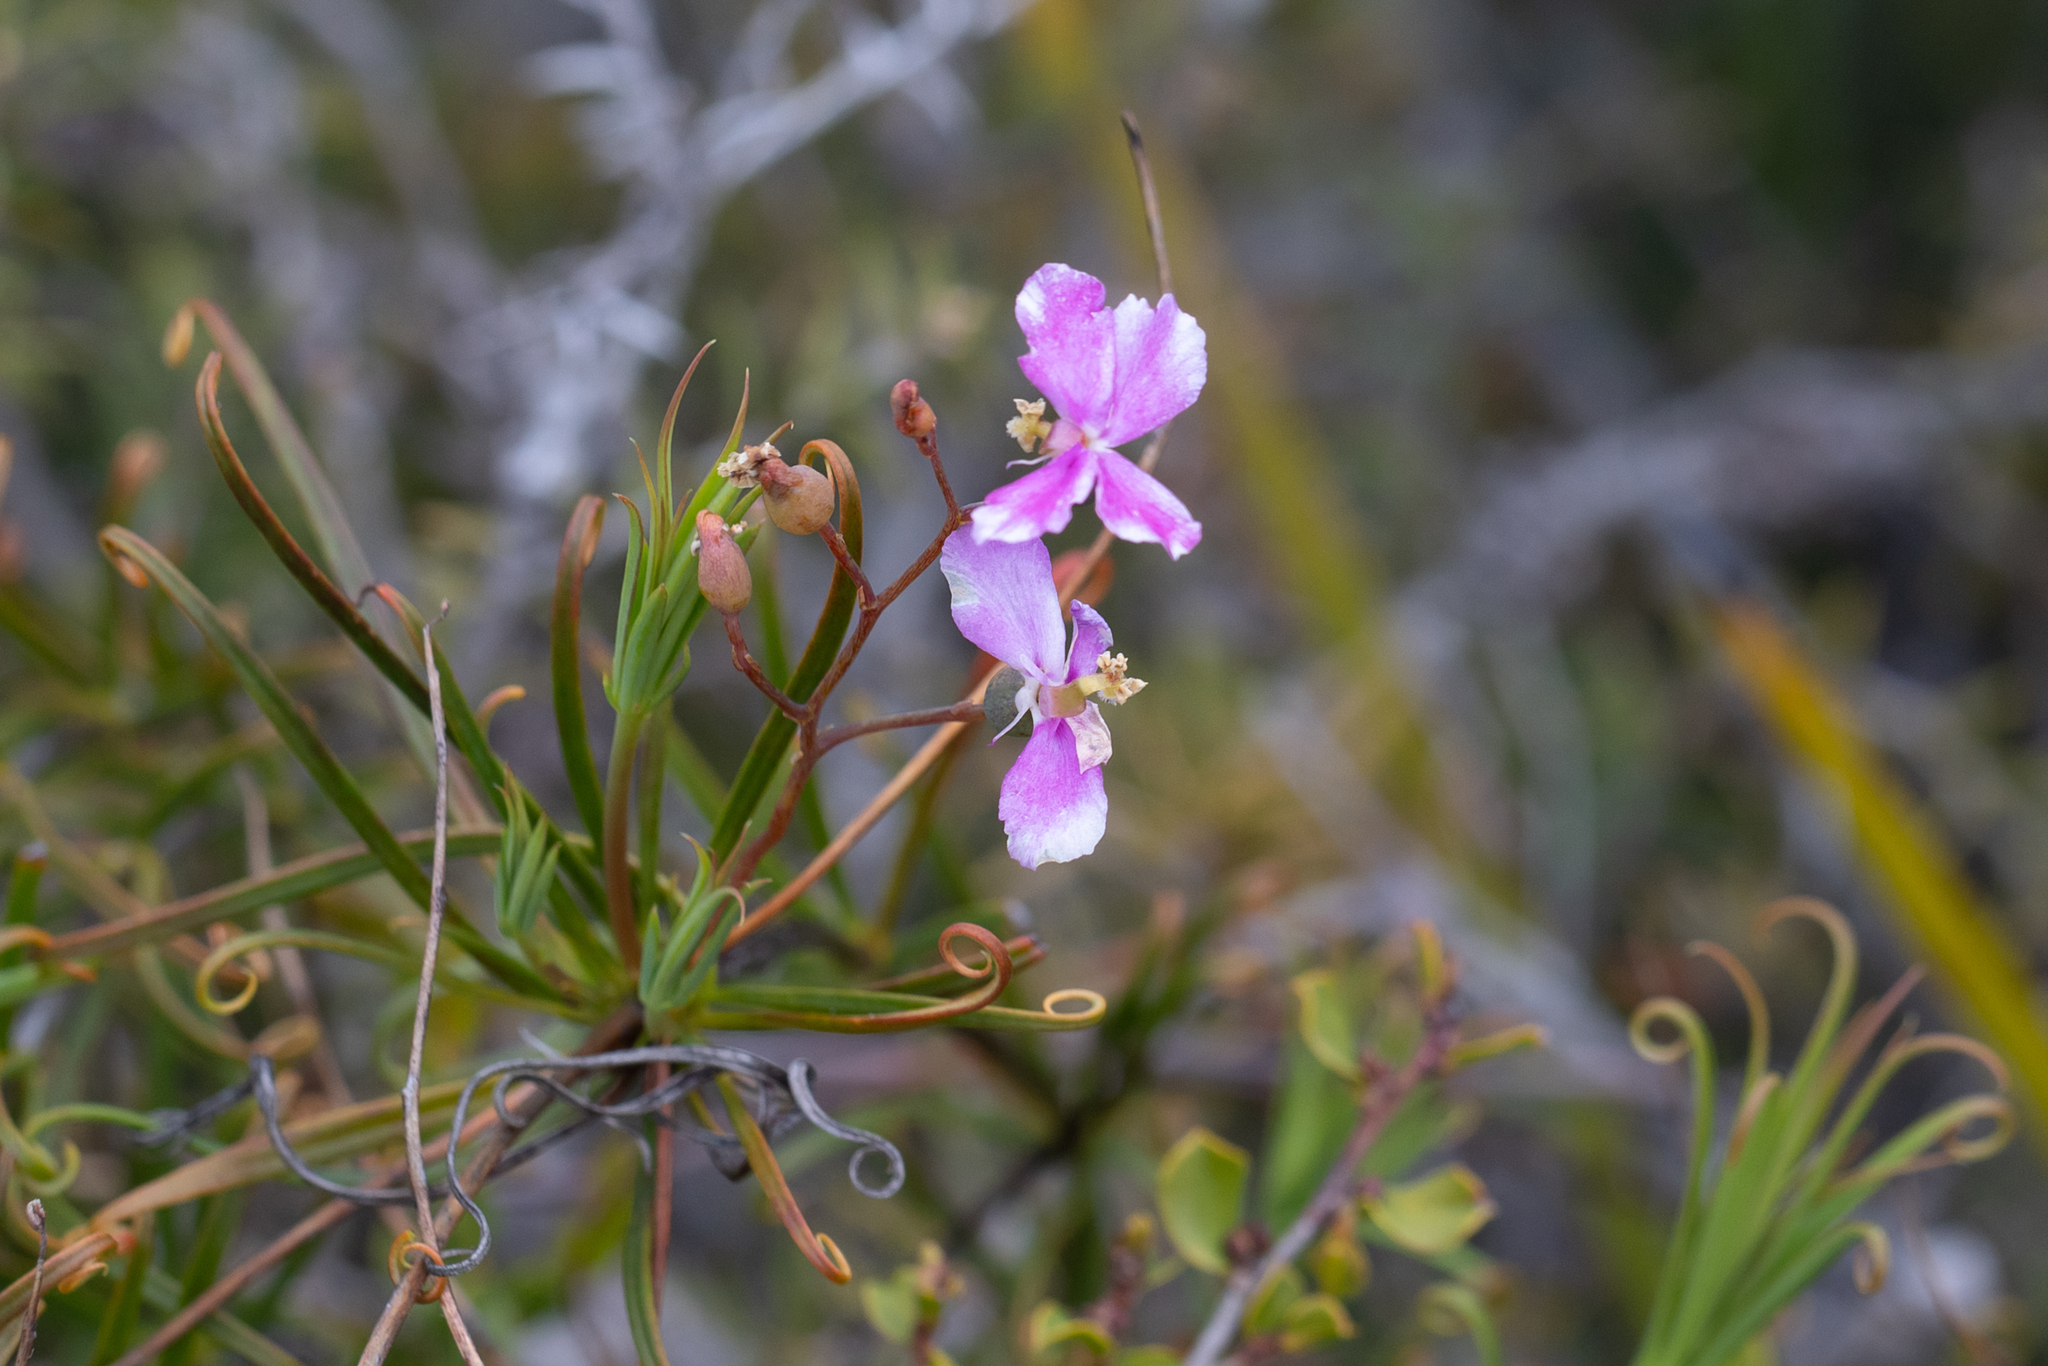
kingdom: Plantae
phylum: Tracheophyta
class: Magnoliopsida
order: Asterales
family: Stylidiaceae
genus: Stylidium
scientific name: Stylidium scandens
